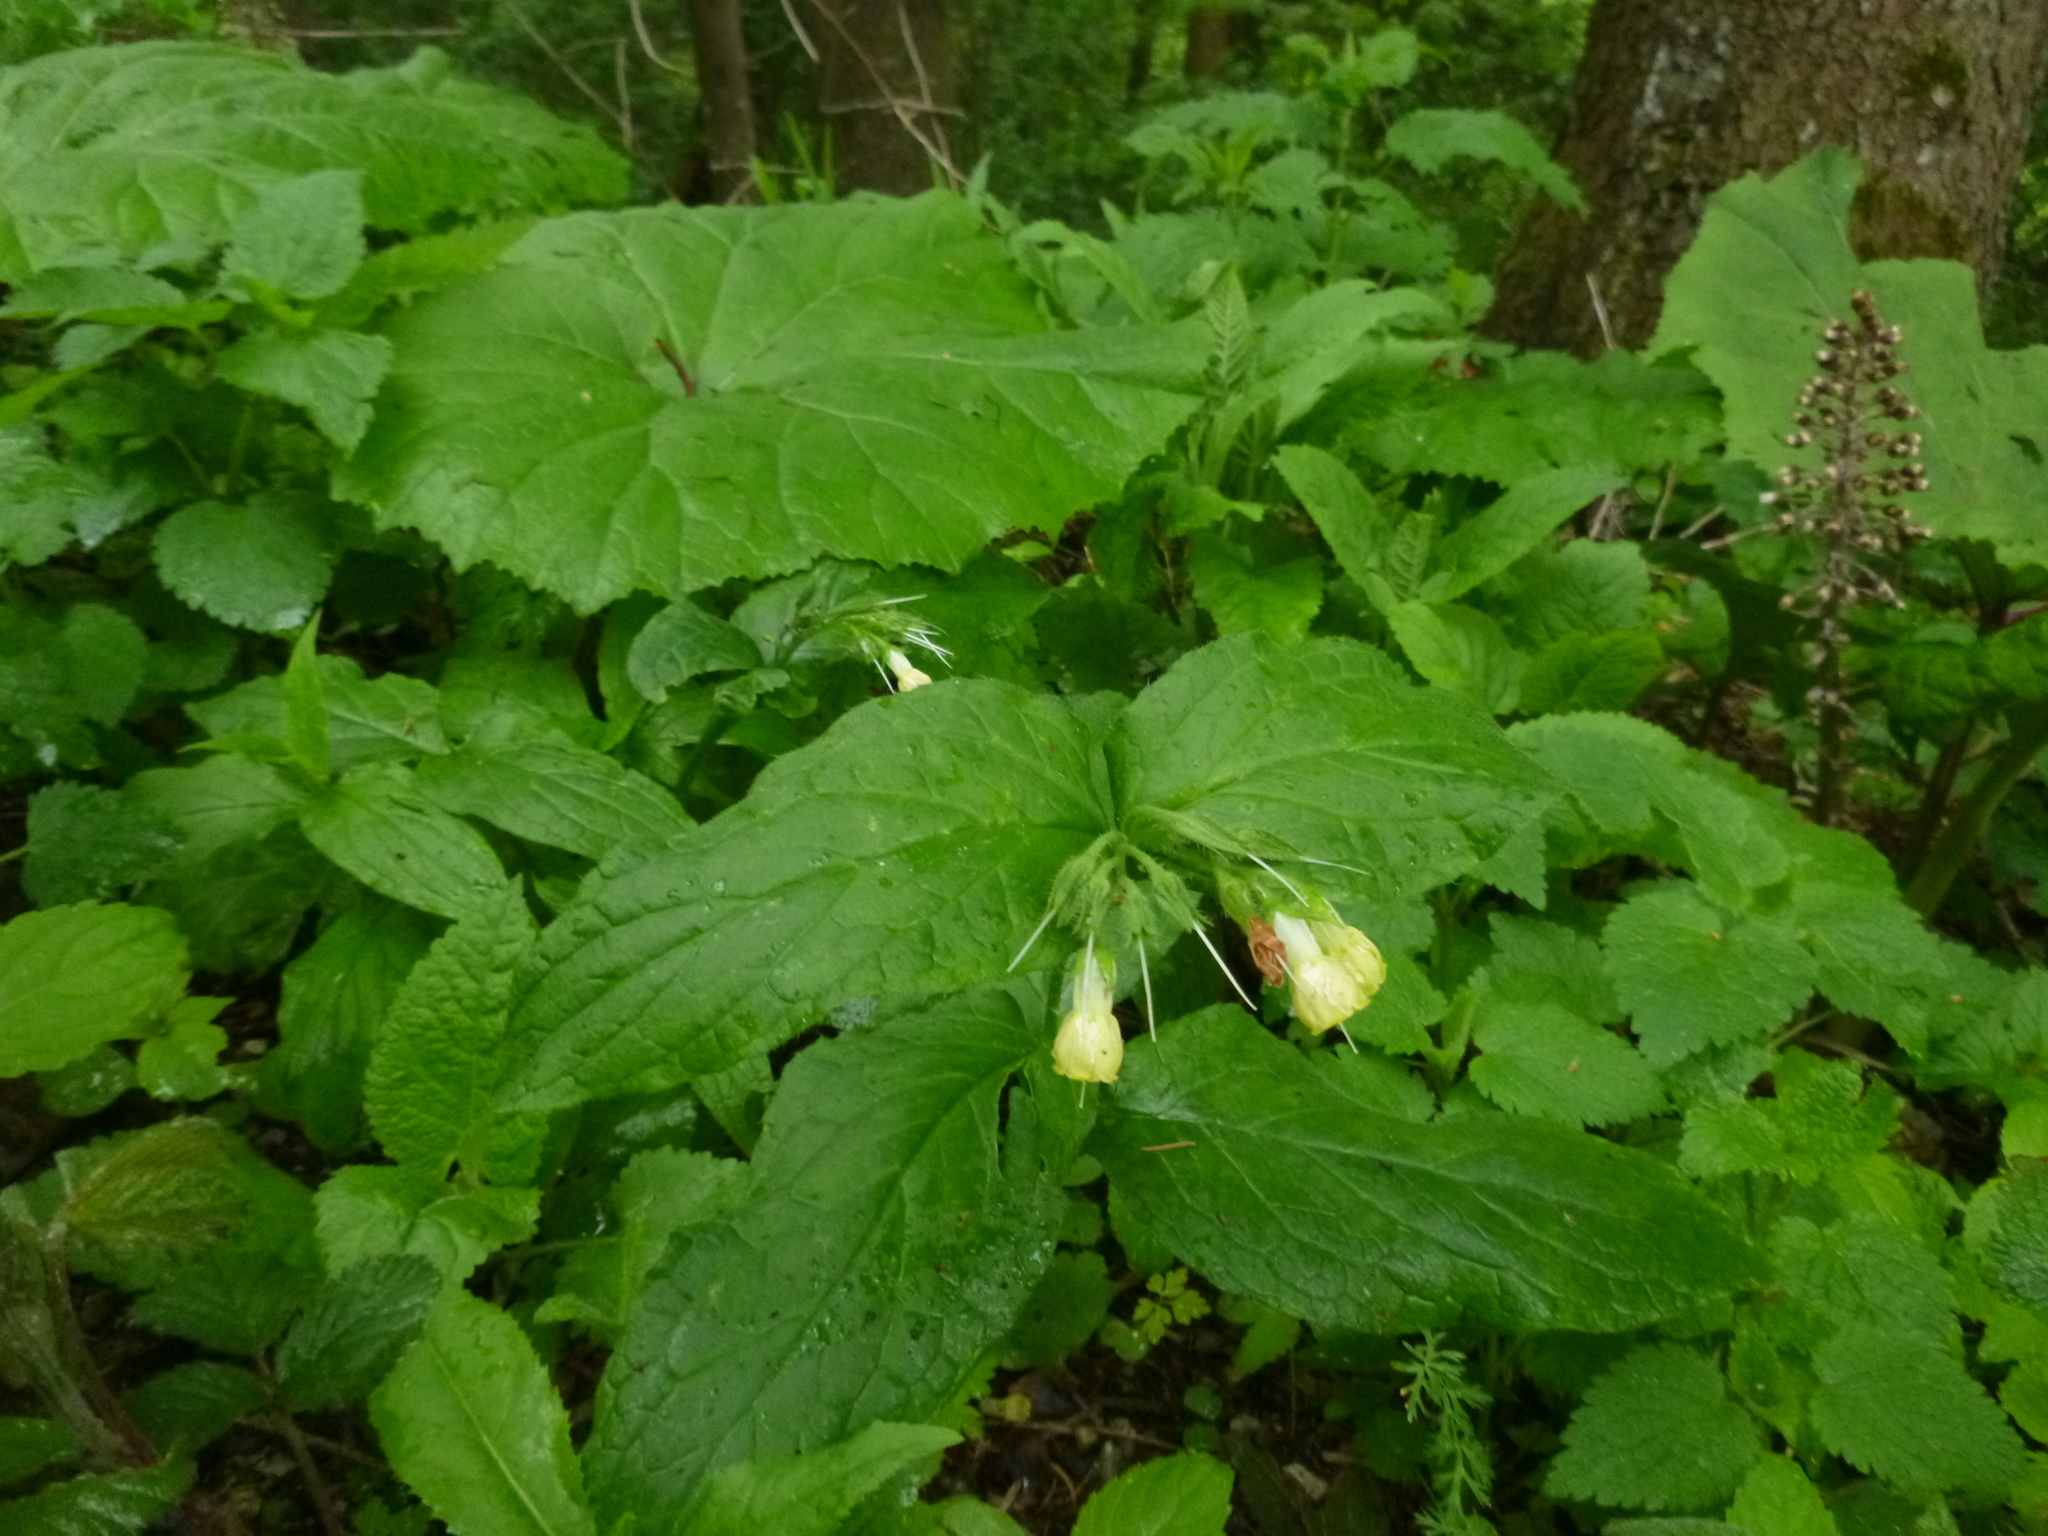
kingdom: Plantae
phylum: Tracheophyta
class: Magnoliopsida
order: Boraginales
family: Boraginaceae
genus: Symphytum
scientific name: Symphytum tuberosum
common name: Tuberous comfrey
